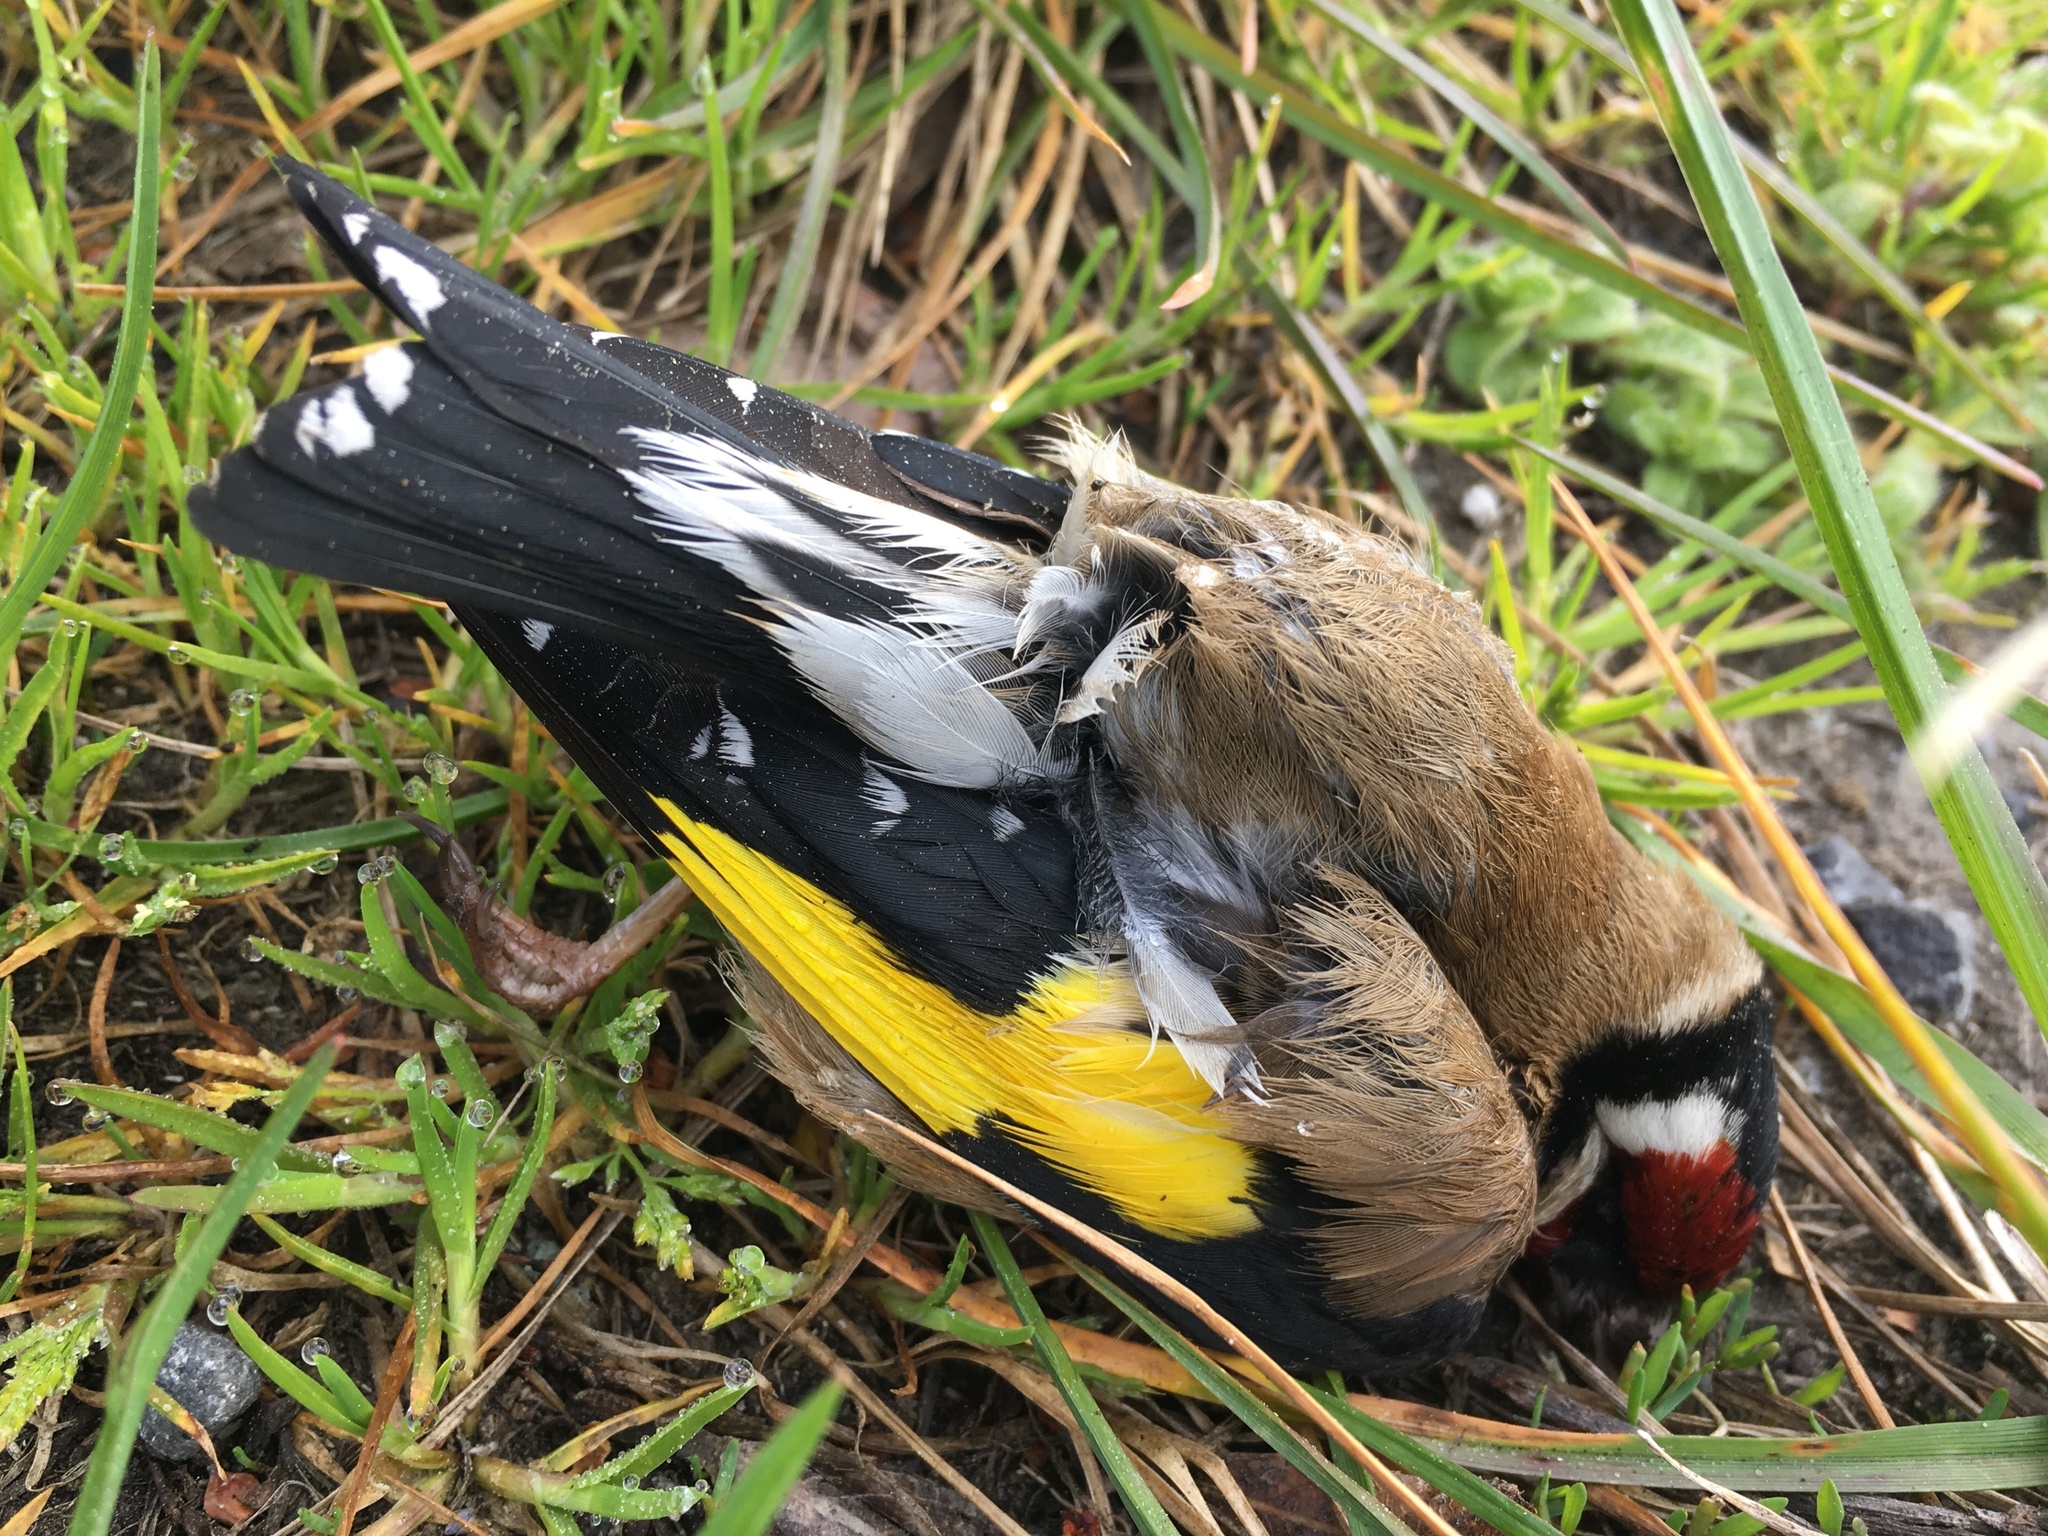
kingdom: Animalia
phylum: Chordata
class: Aves
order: Passeriformes
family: Fringillidae
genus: Carduelis
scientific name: Carduelis carduelis
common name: European goldfinch
